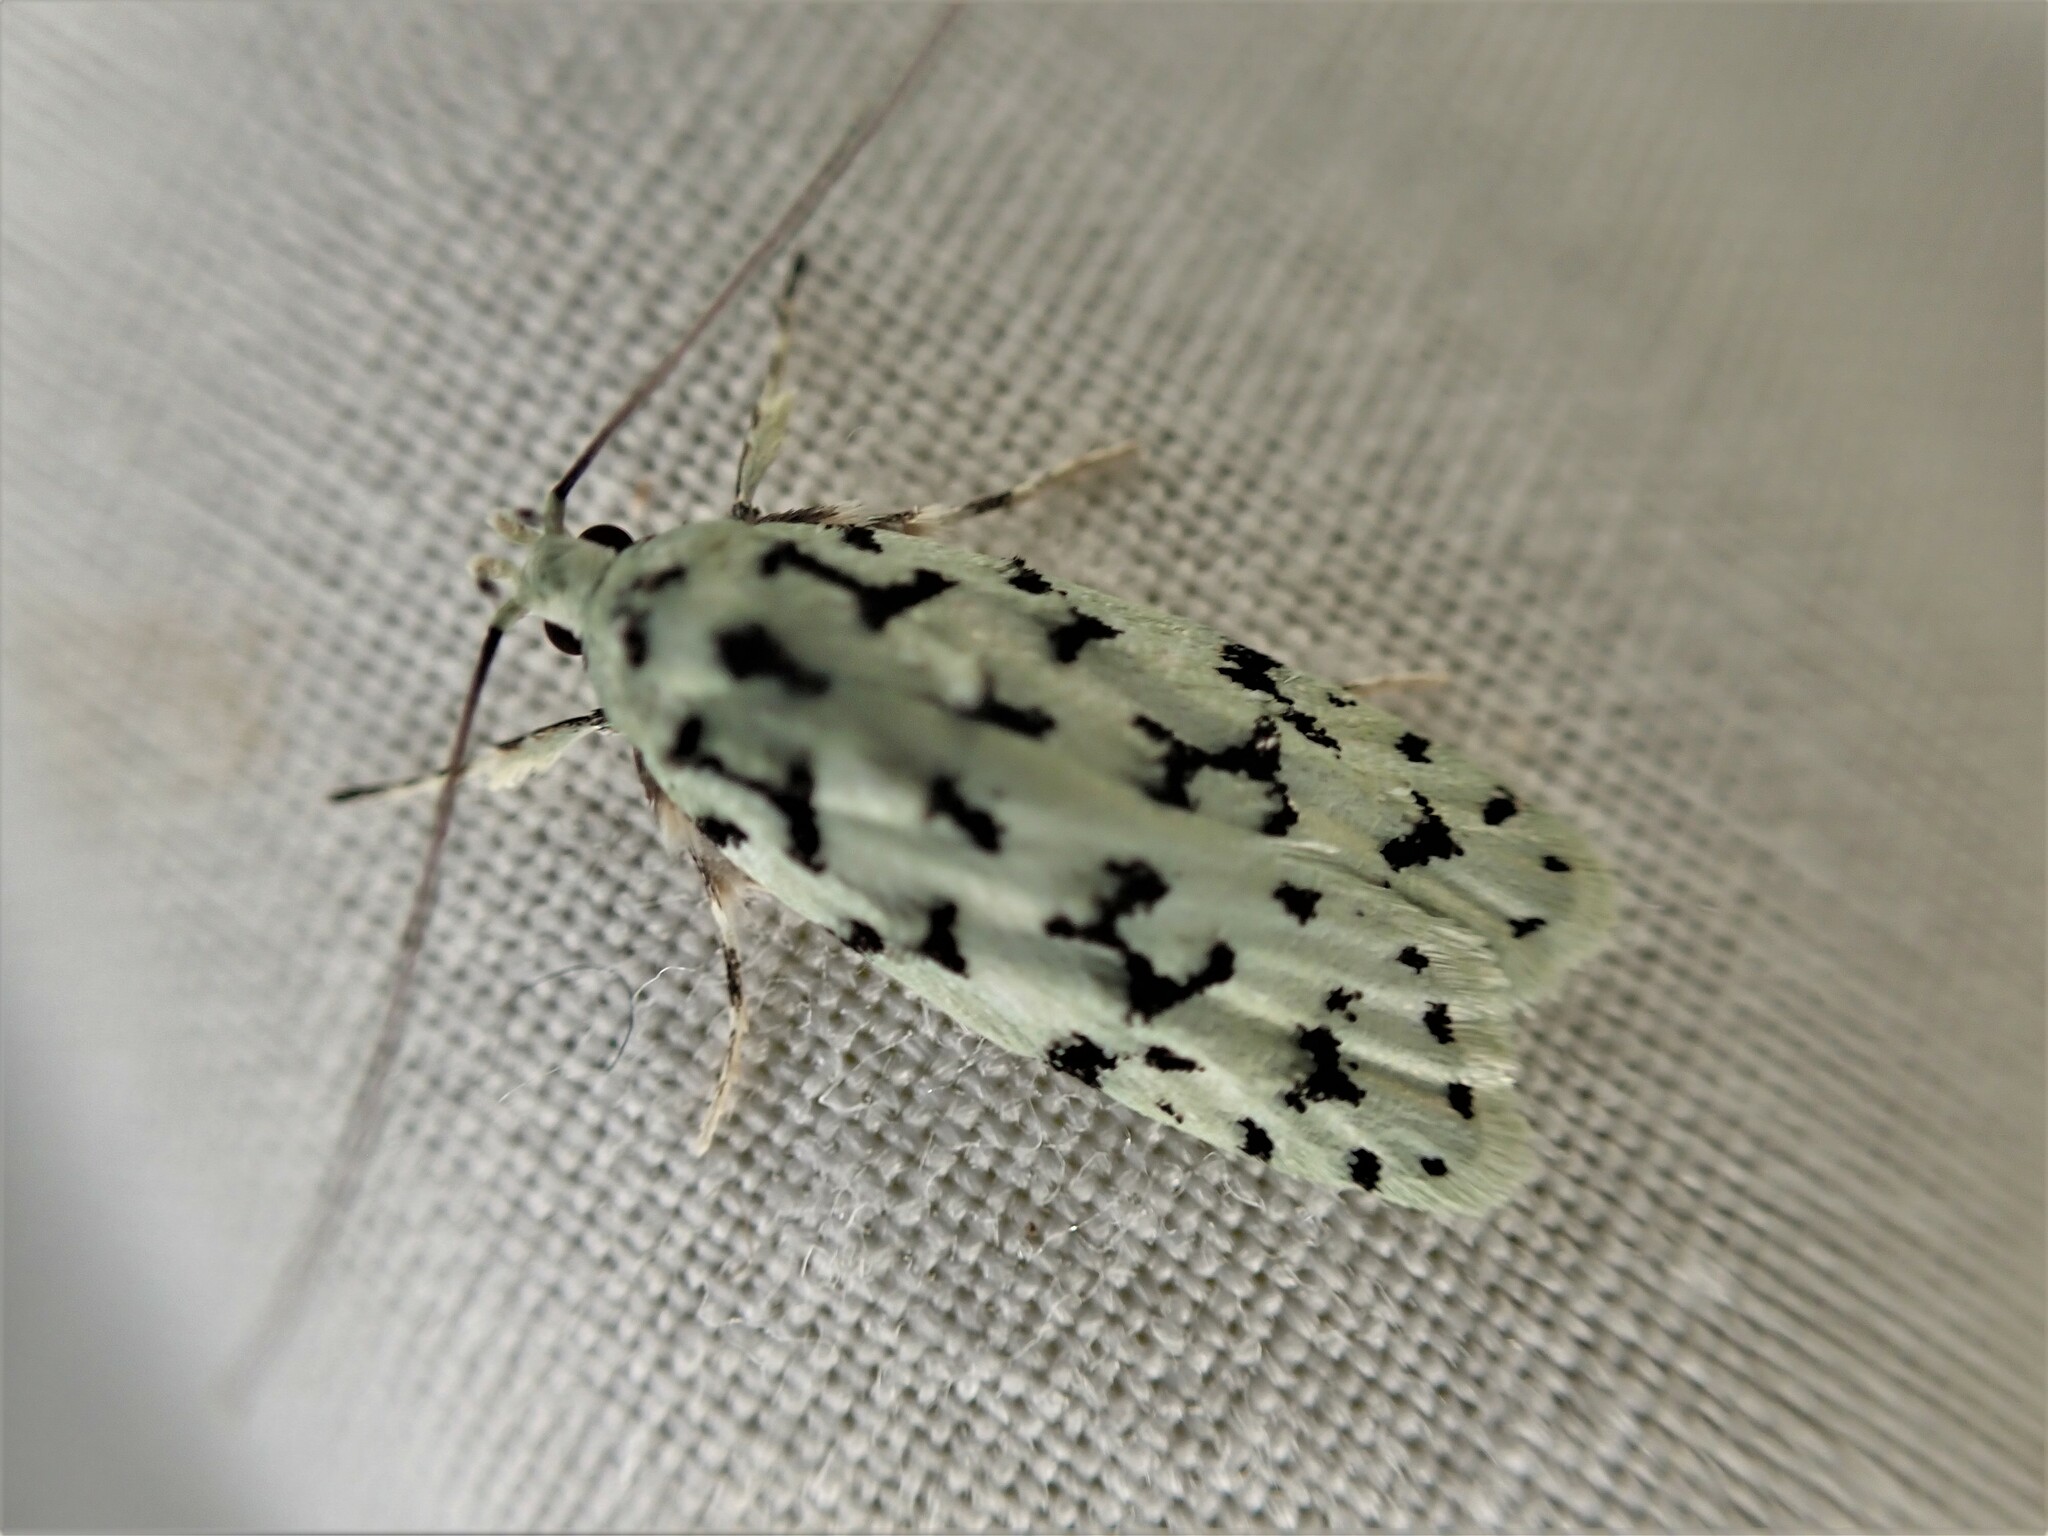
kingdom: Animalia
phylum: Arthropoda
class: Insecta
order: Lepidoptera
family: Oecophoridae
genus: Izatha
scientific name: Izatha huttoni
